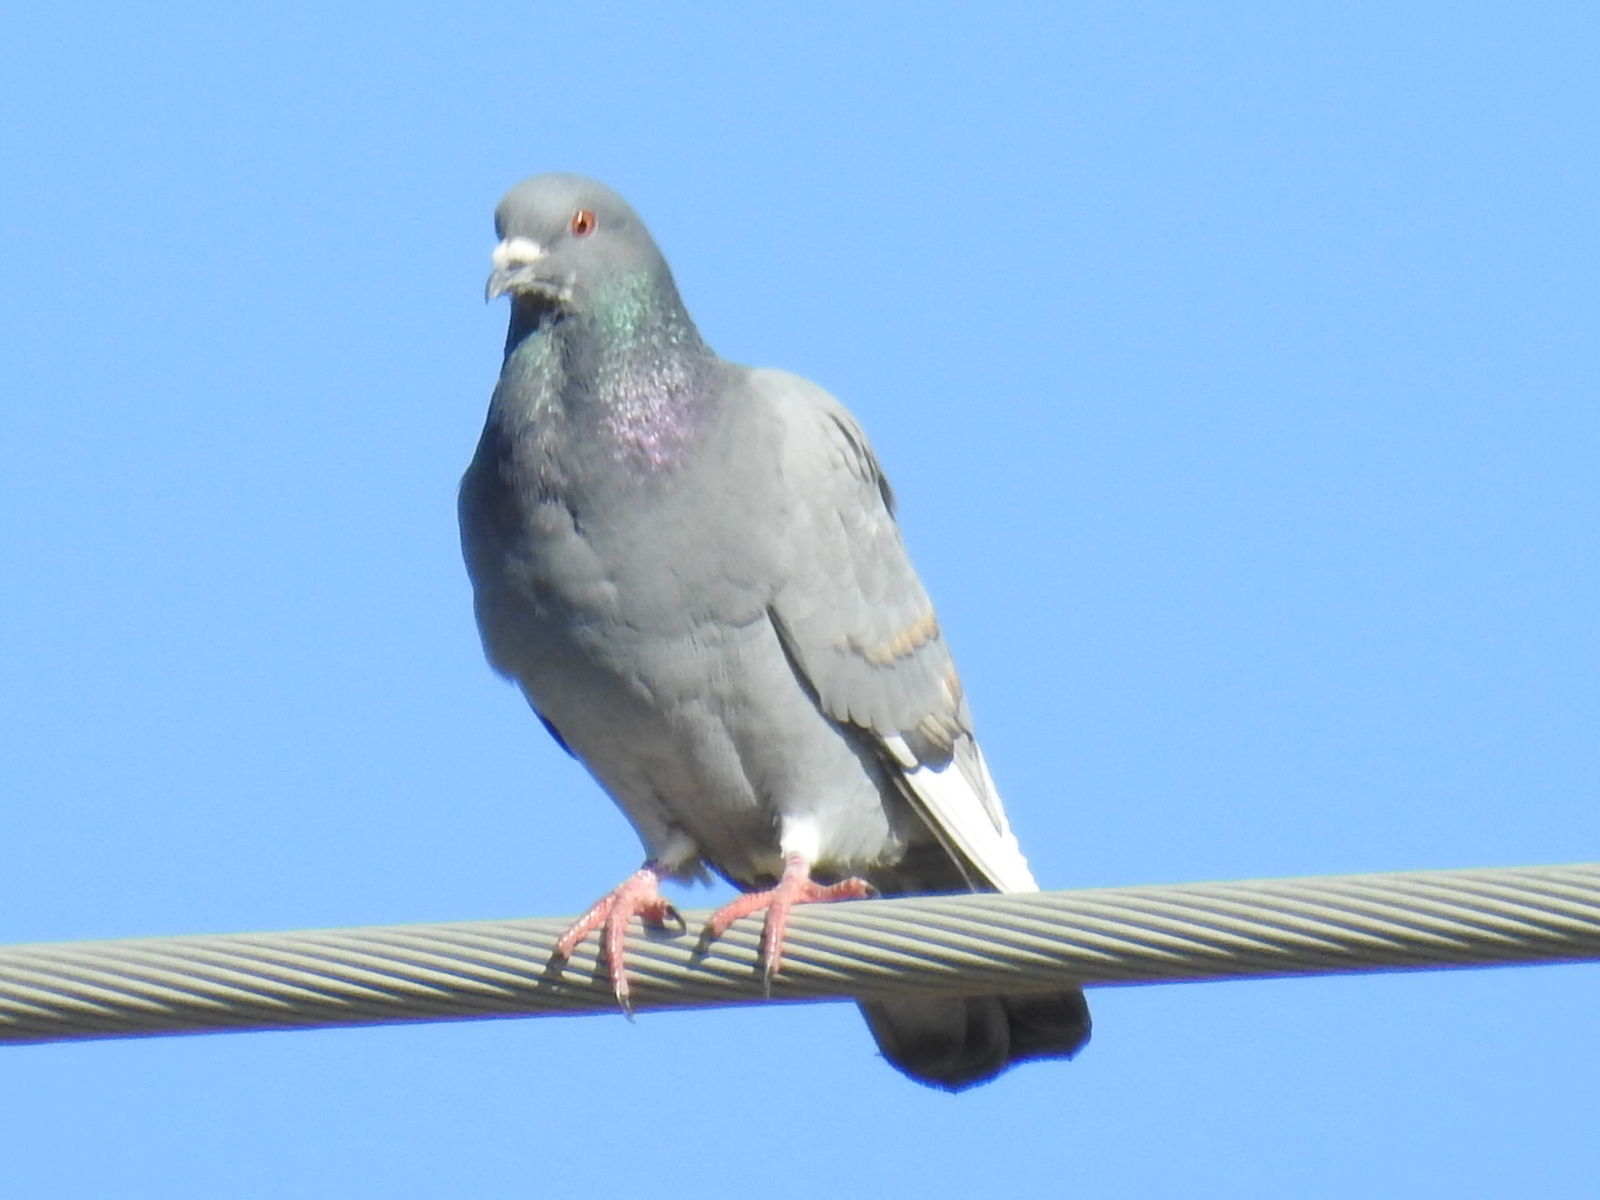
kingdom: Animalia
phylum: Chordata
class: Aves
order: Columbiformes
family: Columbidae
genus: Columba
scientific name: Columba livia
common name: Rock pigeon
